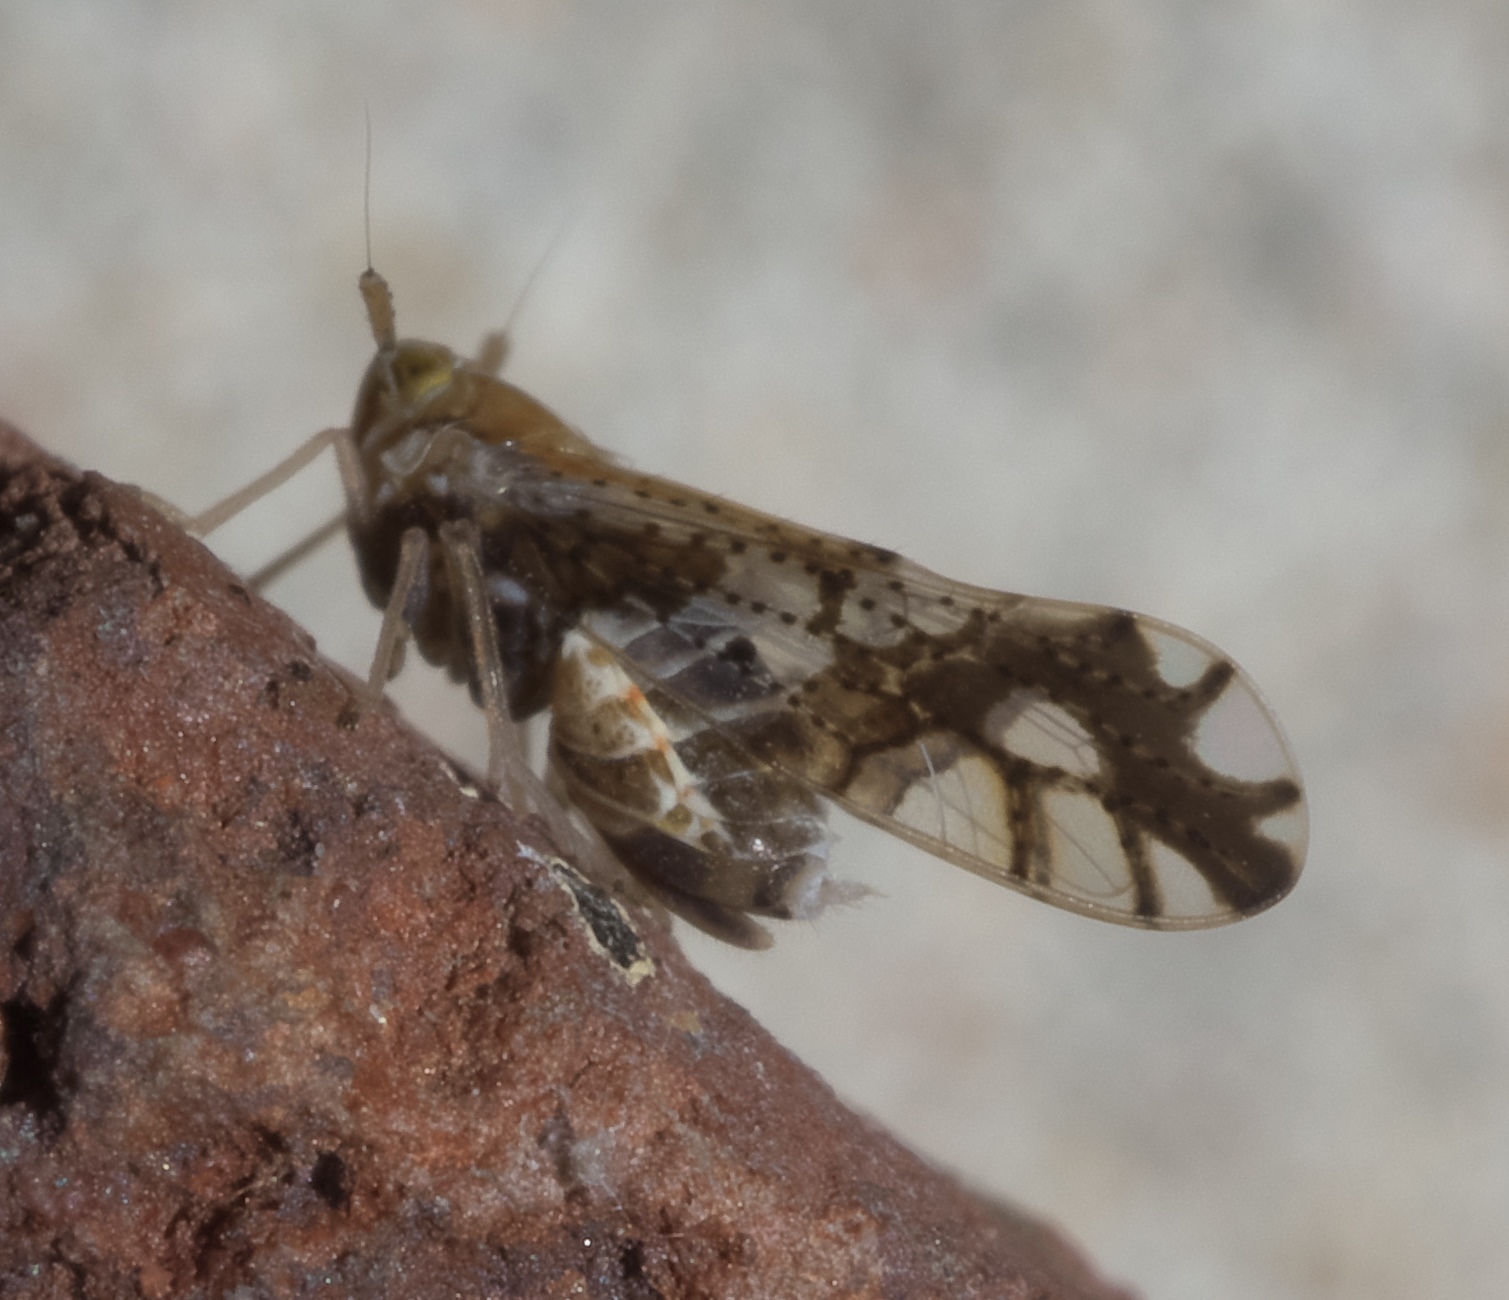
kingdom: Animalia
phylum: Arthropoda
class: Insecta
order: Hemiptera
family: Delphacidae
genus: Liburniella
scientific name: Liburniella ornata
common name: Ornate planthopper
